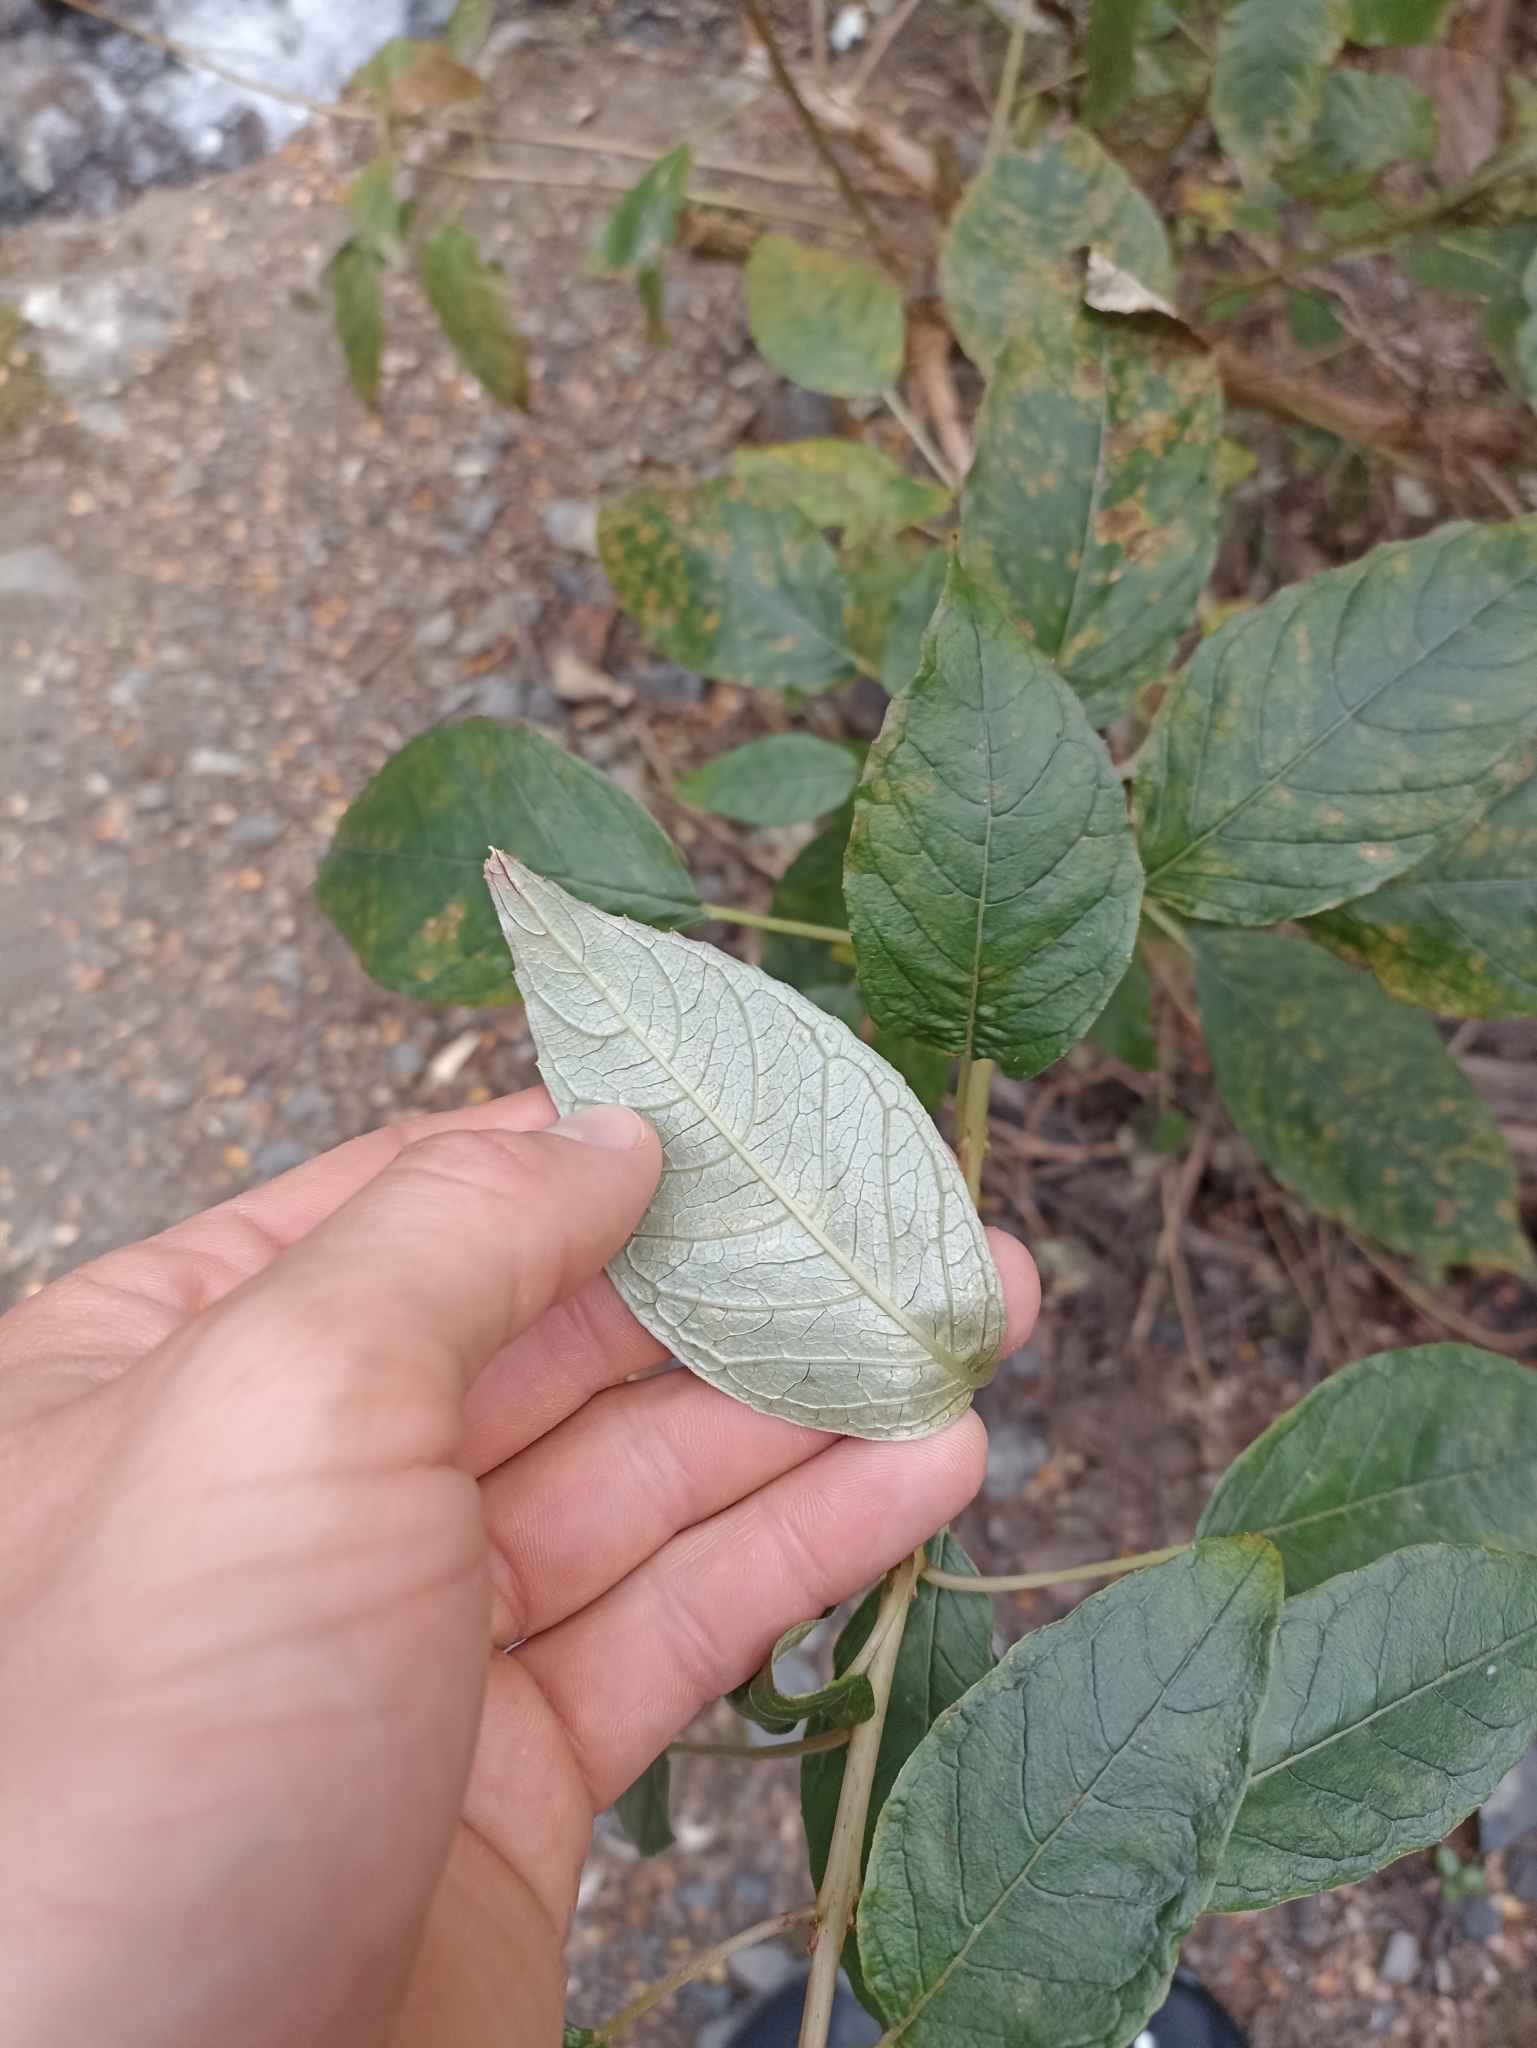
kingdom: Plantae
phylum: Tracheophyta
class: Magnoliopsida
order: Myrtales
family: Onagraceae
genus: Fuchsia
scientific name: Fuchsia excorticata
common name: Tree fuchsia
